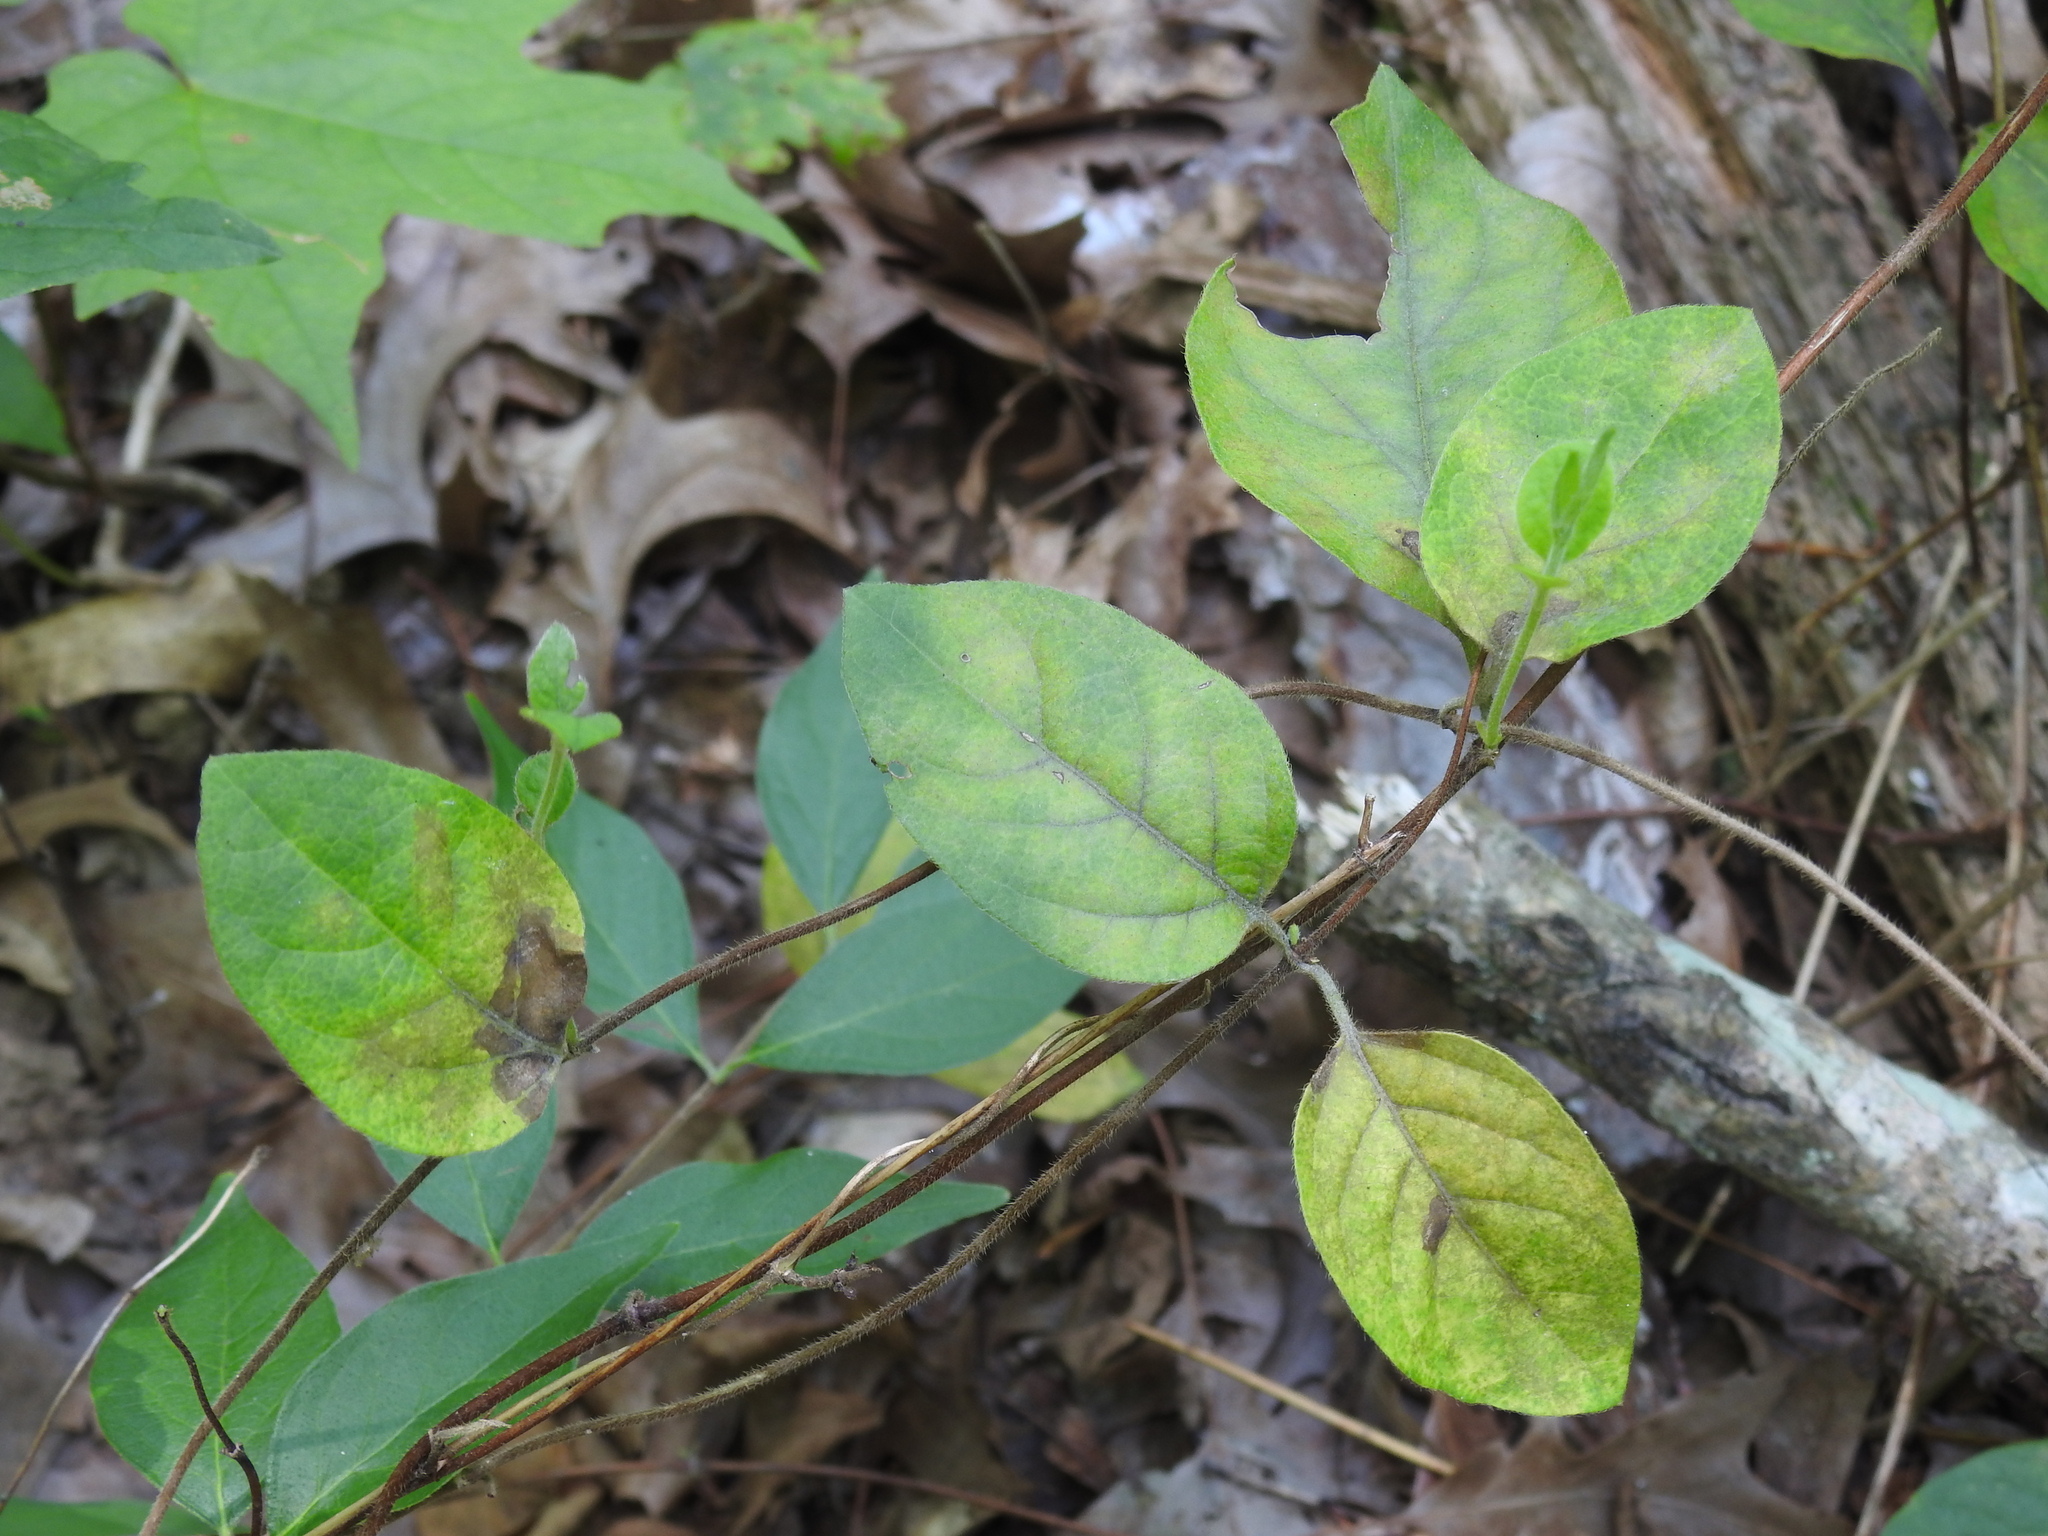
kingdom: Plantae
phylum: Tracheophyta
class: Magnoliopsida
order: Dipsacales
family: Caprifoliaceae
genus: Lonicera
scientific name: Lonicera japonica
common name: Japanese honeysuckle
